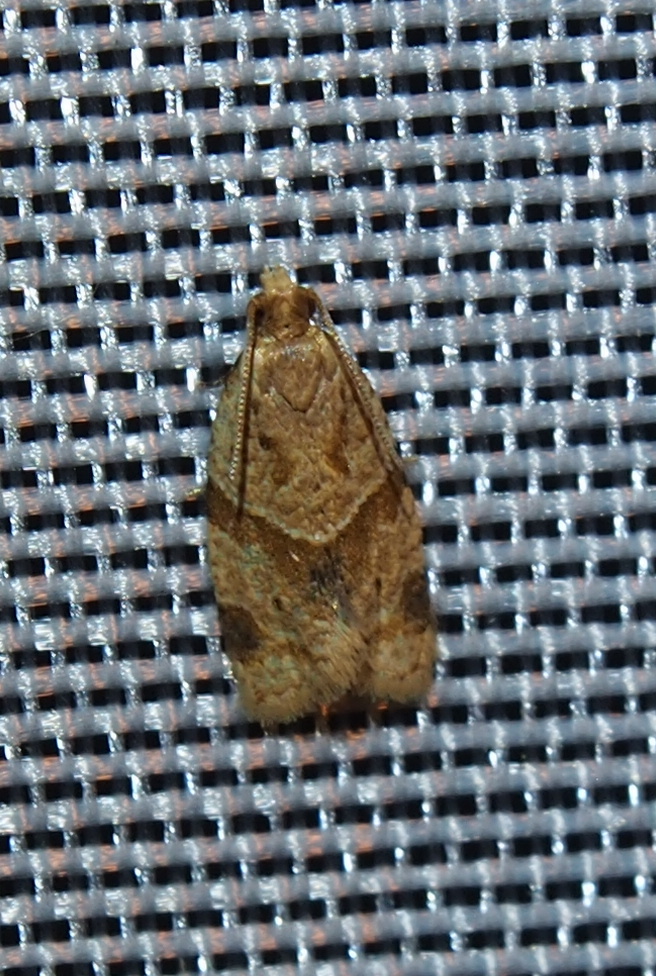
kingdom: Animalia
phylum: Arthropoda
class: Insecta
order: Lepidoptera
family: Tortricidae
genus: Clepsis
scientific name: Clepsis peritana
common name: Garden tortrix
